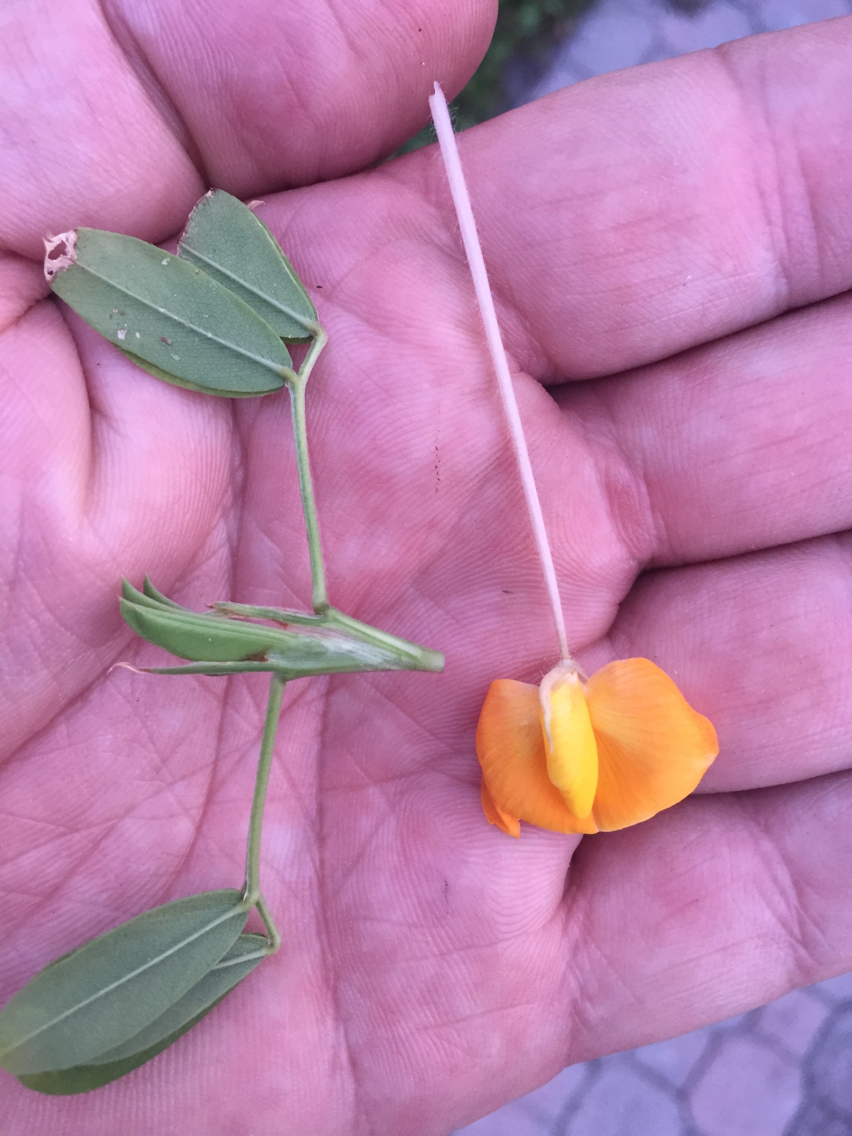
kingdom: Plantae
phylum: Tracheophyta
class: Magnoliopsida
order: Fabales
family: Fabaceae
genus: Arachis
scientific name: Arachis glabrata
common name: Rhizoma peanut
